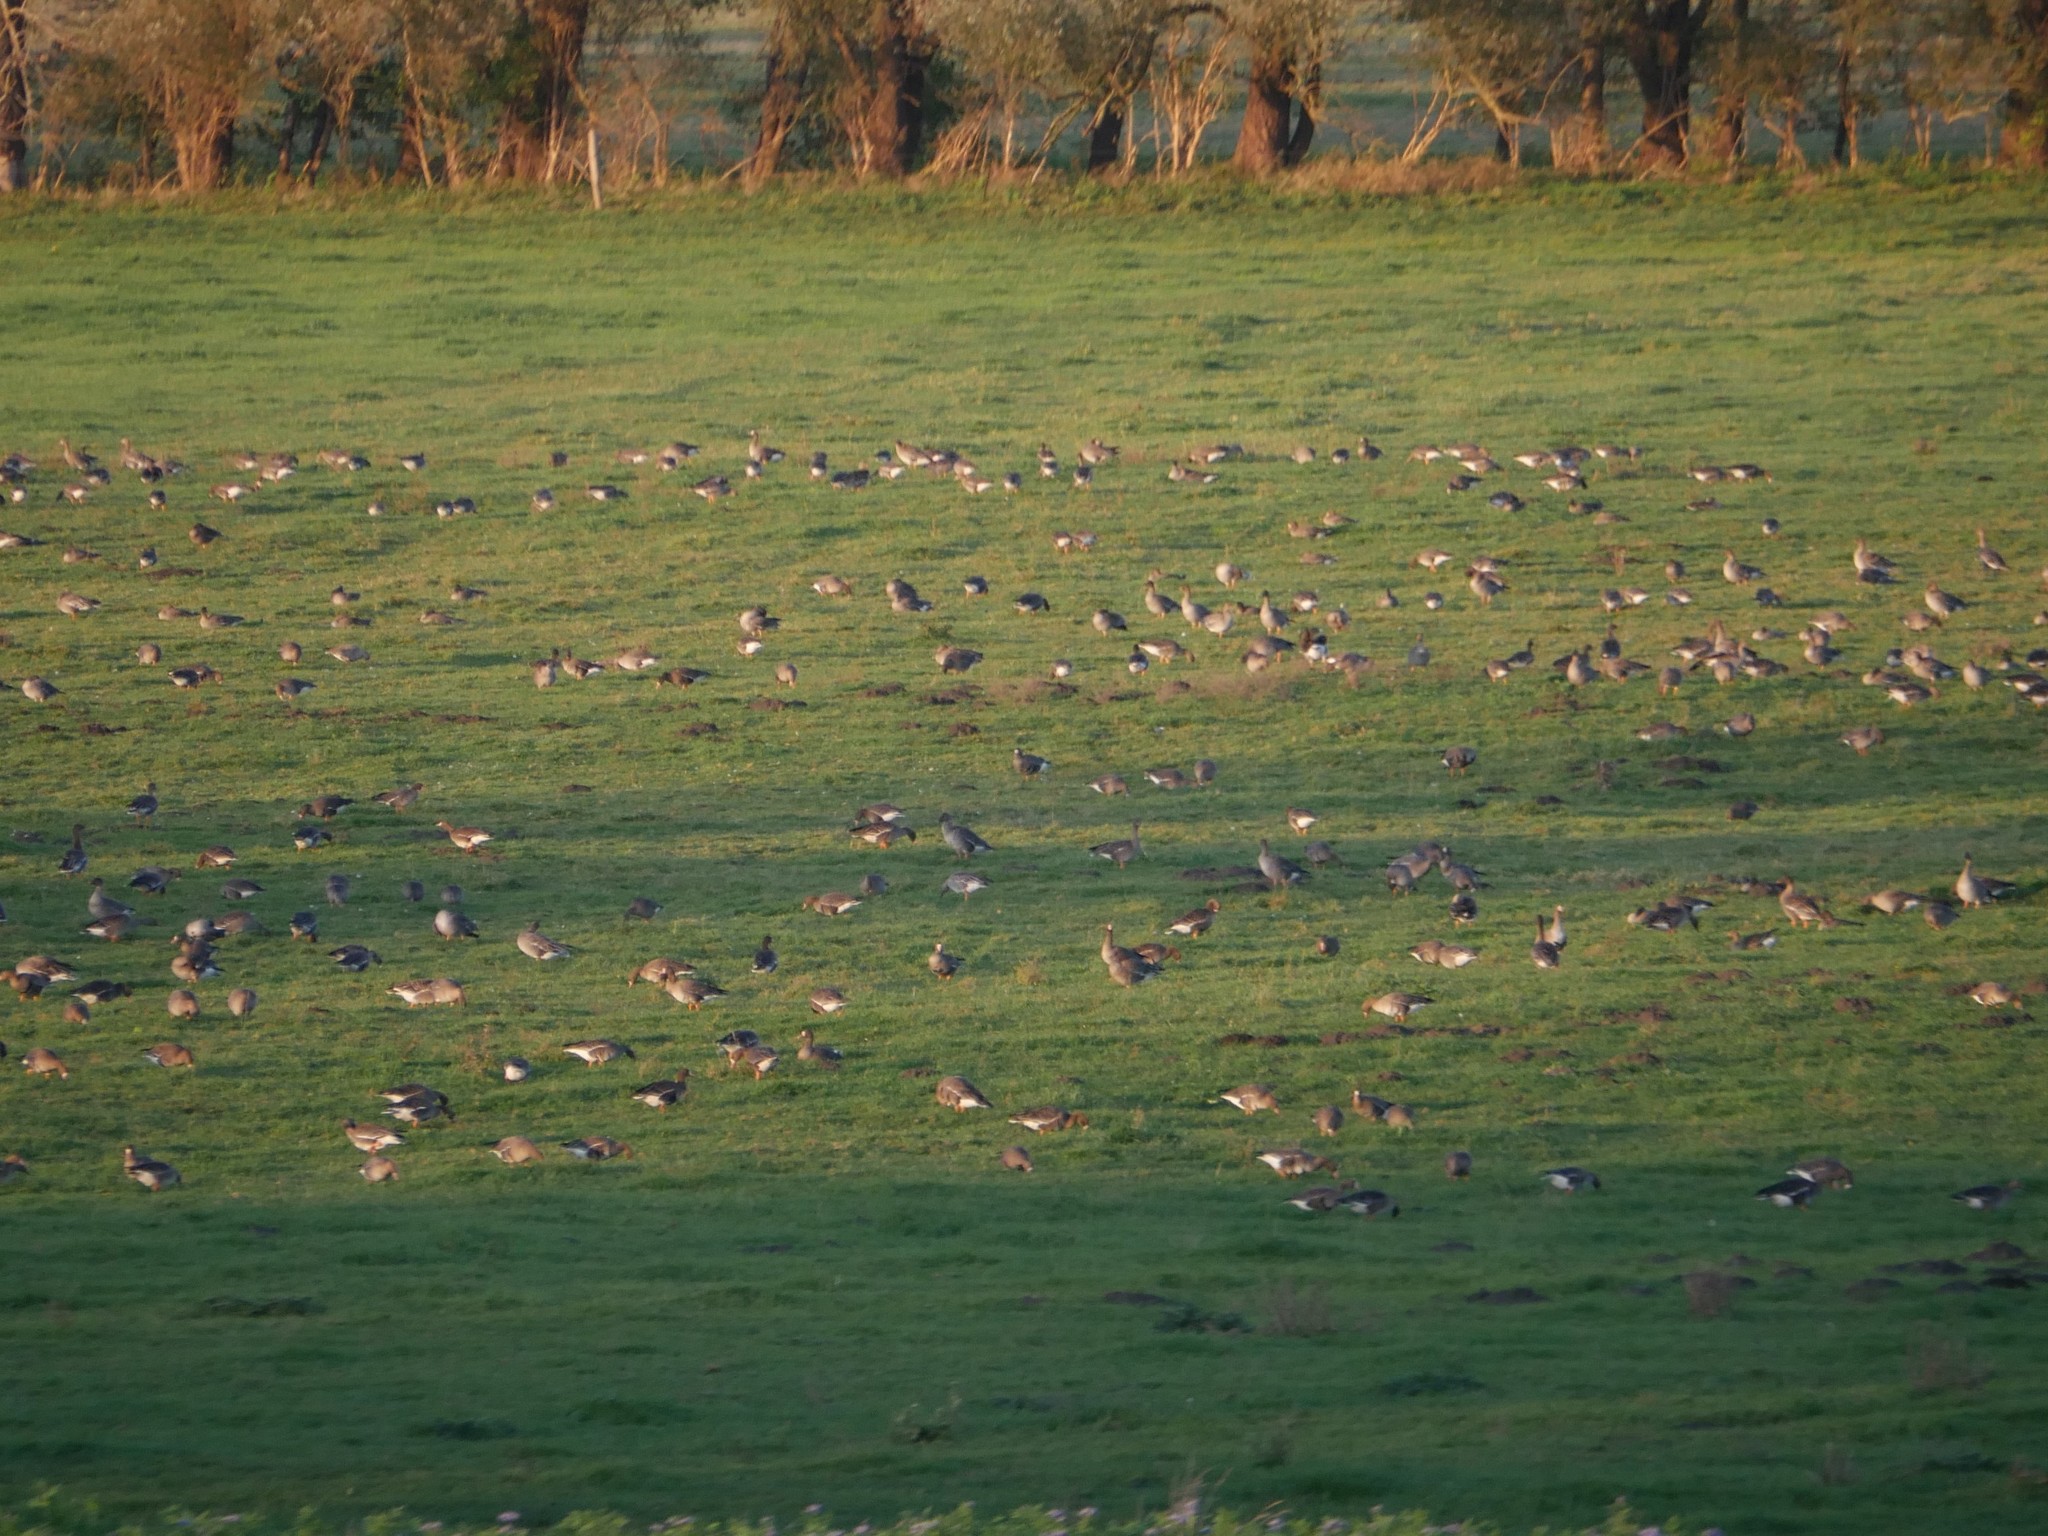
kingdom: Animalia
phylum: Chordata
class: Aves
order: Anseriformes
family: Anatidae
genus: Anser
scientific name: Anser albifrons
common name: Greater white-fronted goose
